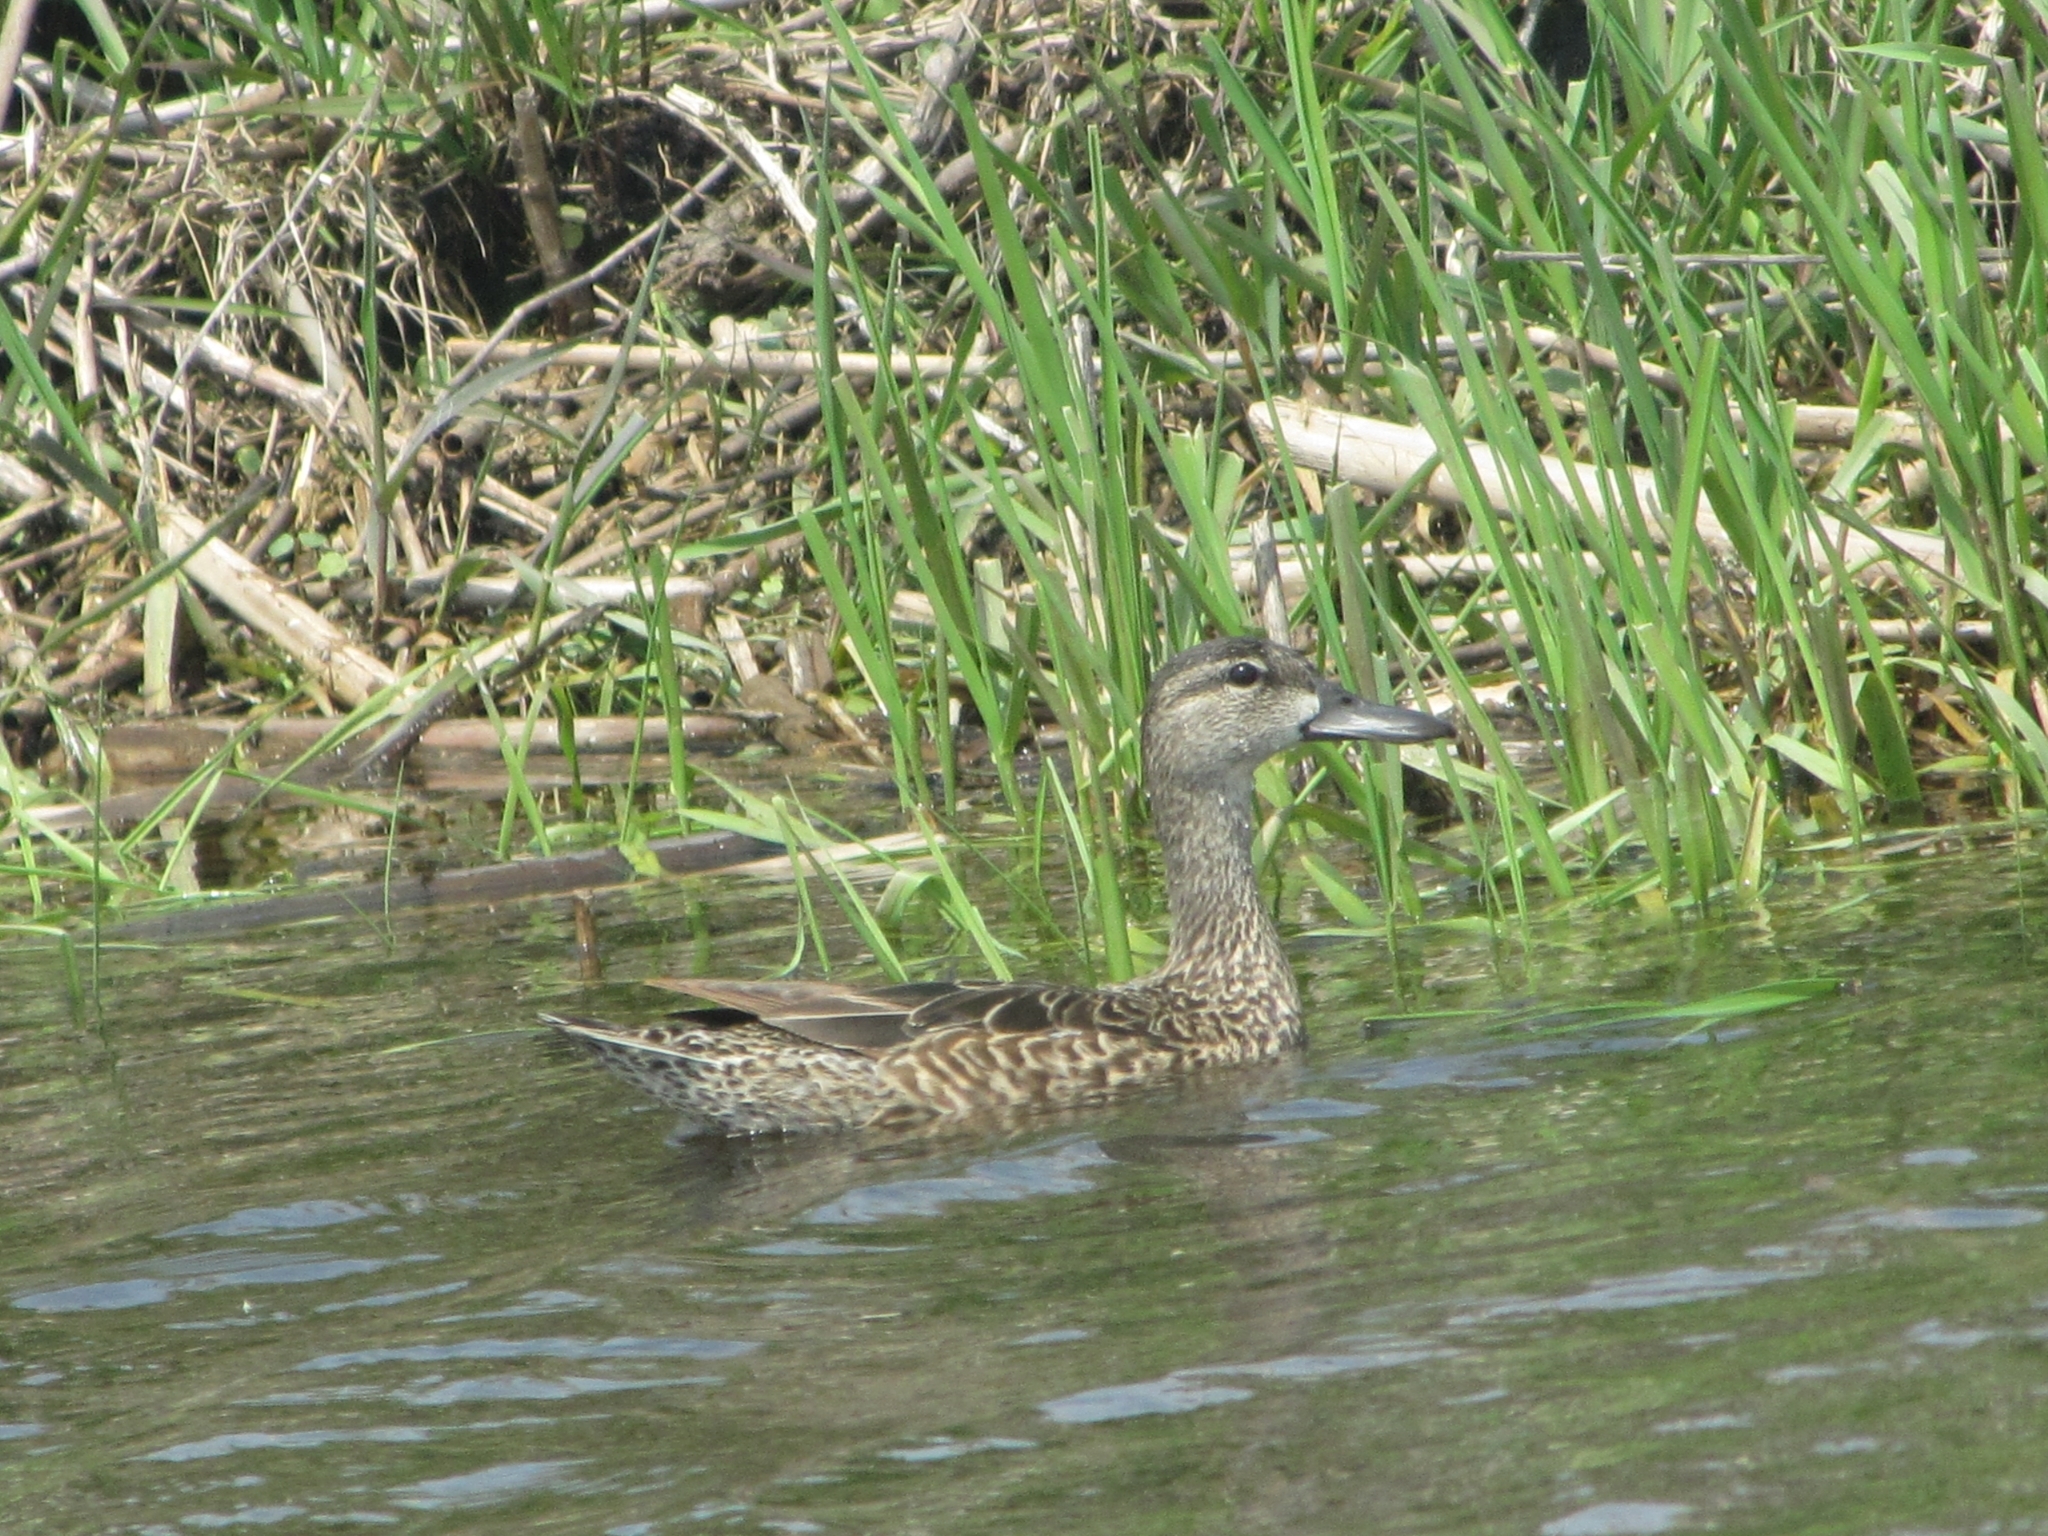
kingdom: Animalia
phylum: Chordata
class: Aves
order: Anseriformes
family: Anatidae
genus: Spatula
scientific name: Spatula discors
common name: Blue-winged teal
